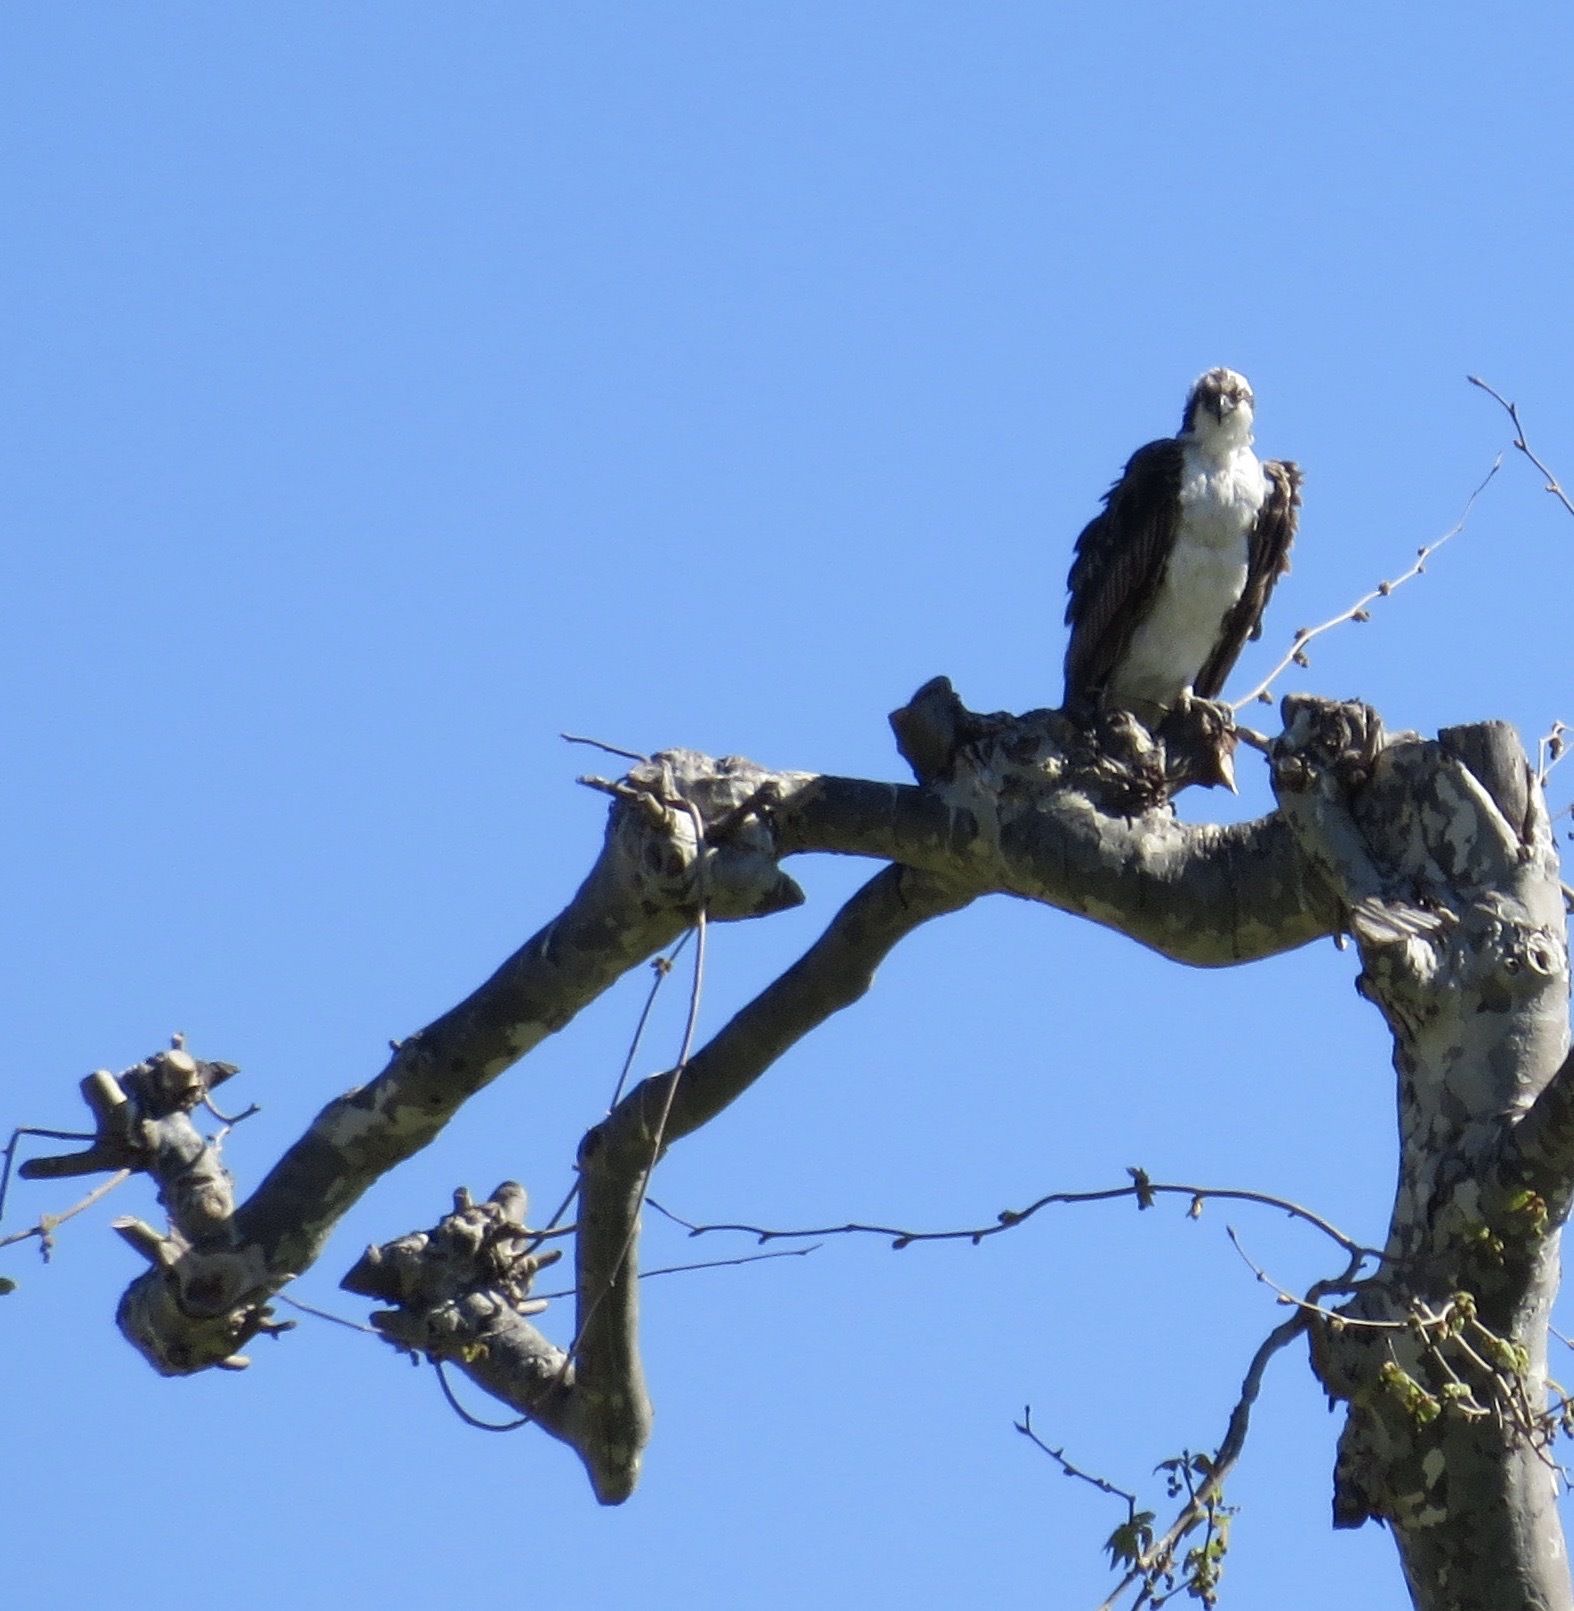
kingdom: Animalia
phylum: Chordata
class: Aves
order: Accipitriformes
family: Pandionidae
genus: Pandion
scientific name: Pandion haliaetus
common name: Osprey
